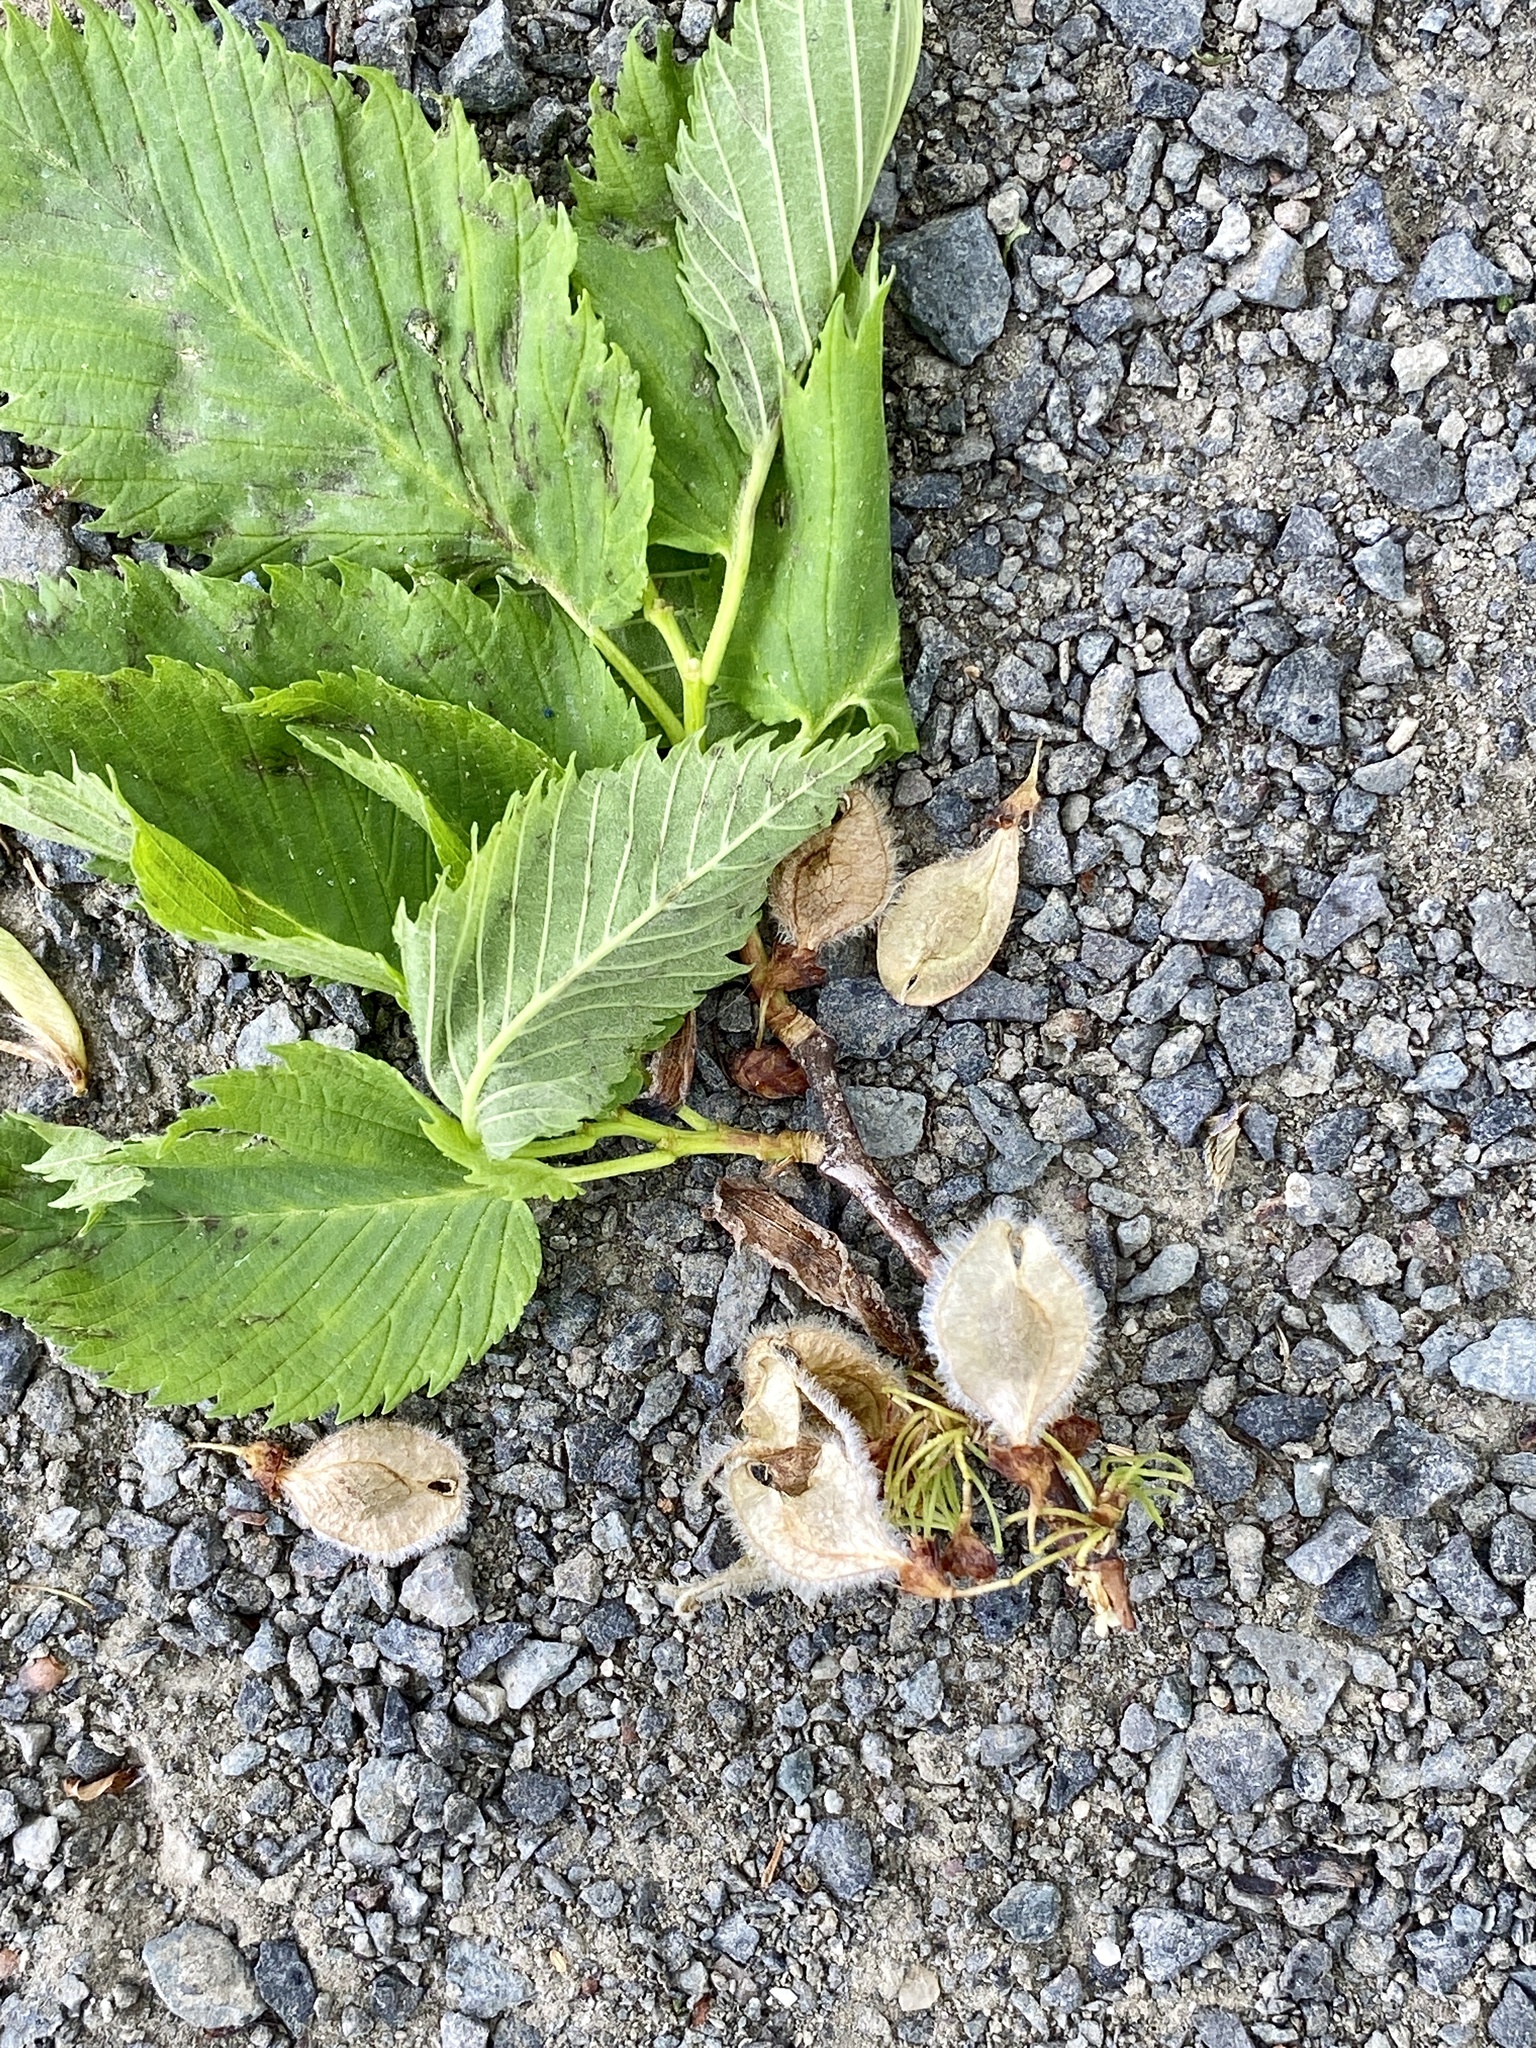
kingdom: Plantae
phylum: Tracheophyta
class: Magnoliopsida
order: Rosales
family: Ulmaceae
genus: Ulmus
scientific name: Ulmus americana
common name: American elm
